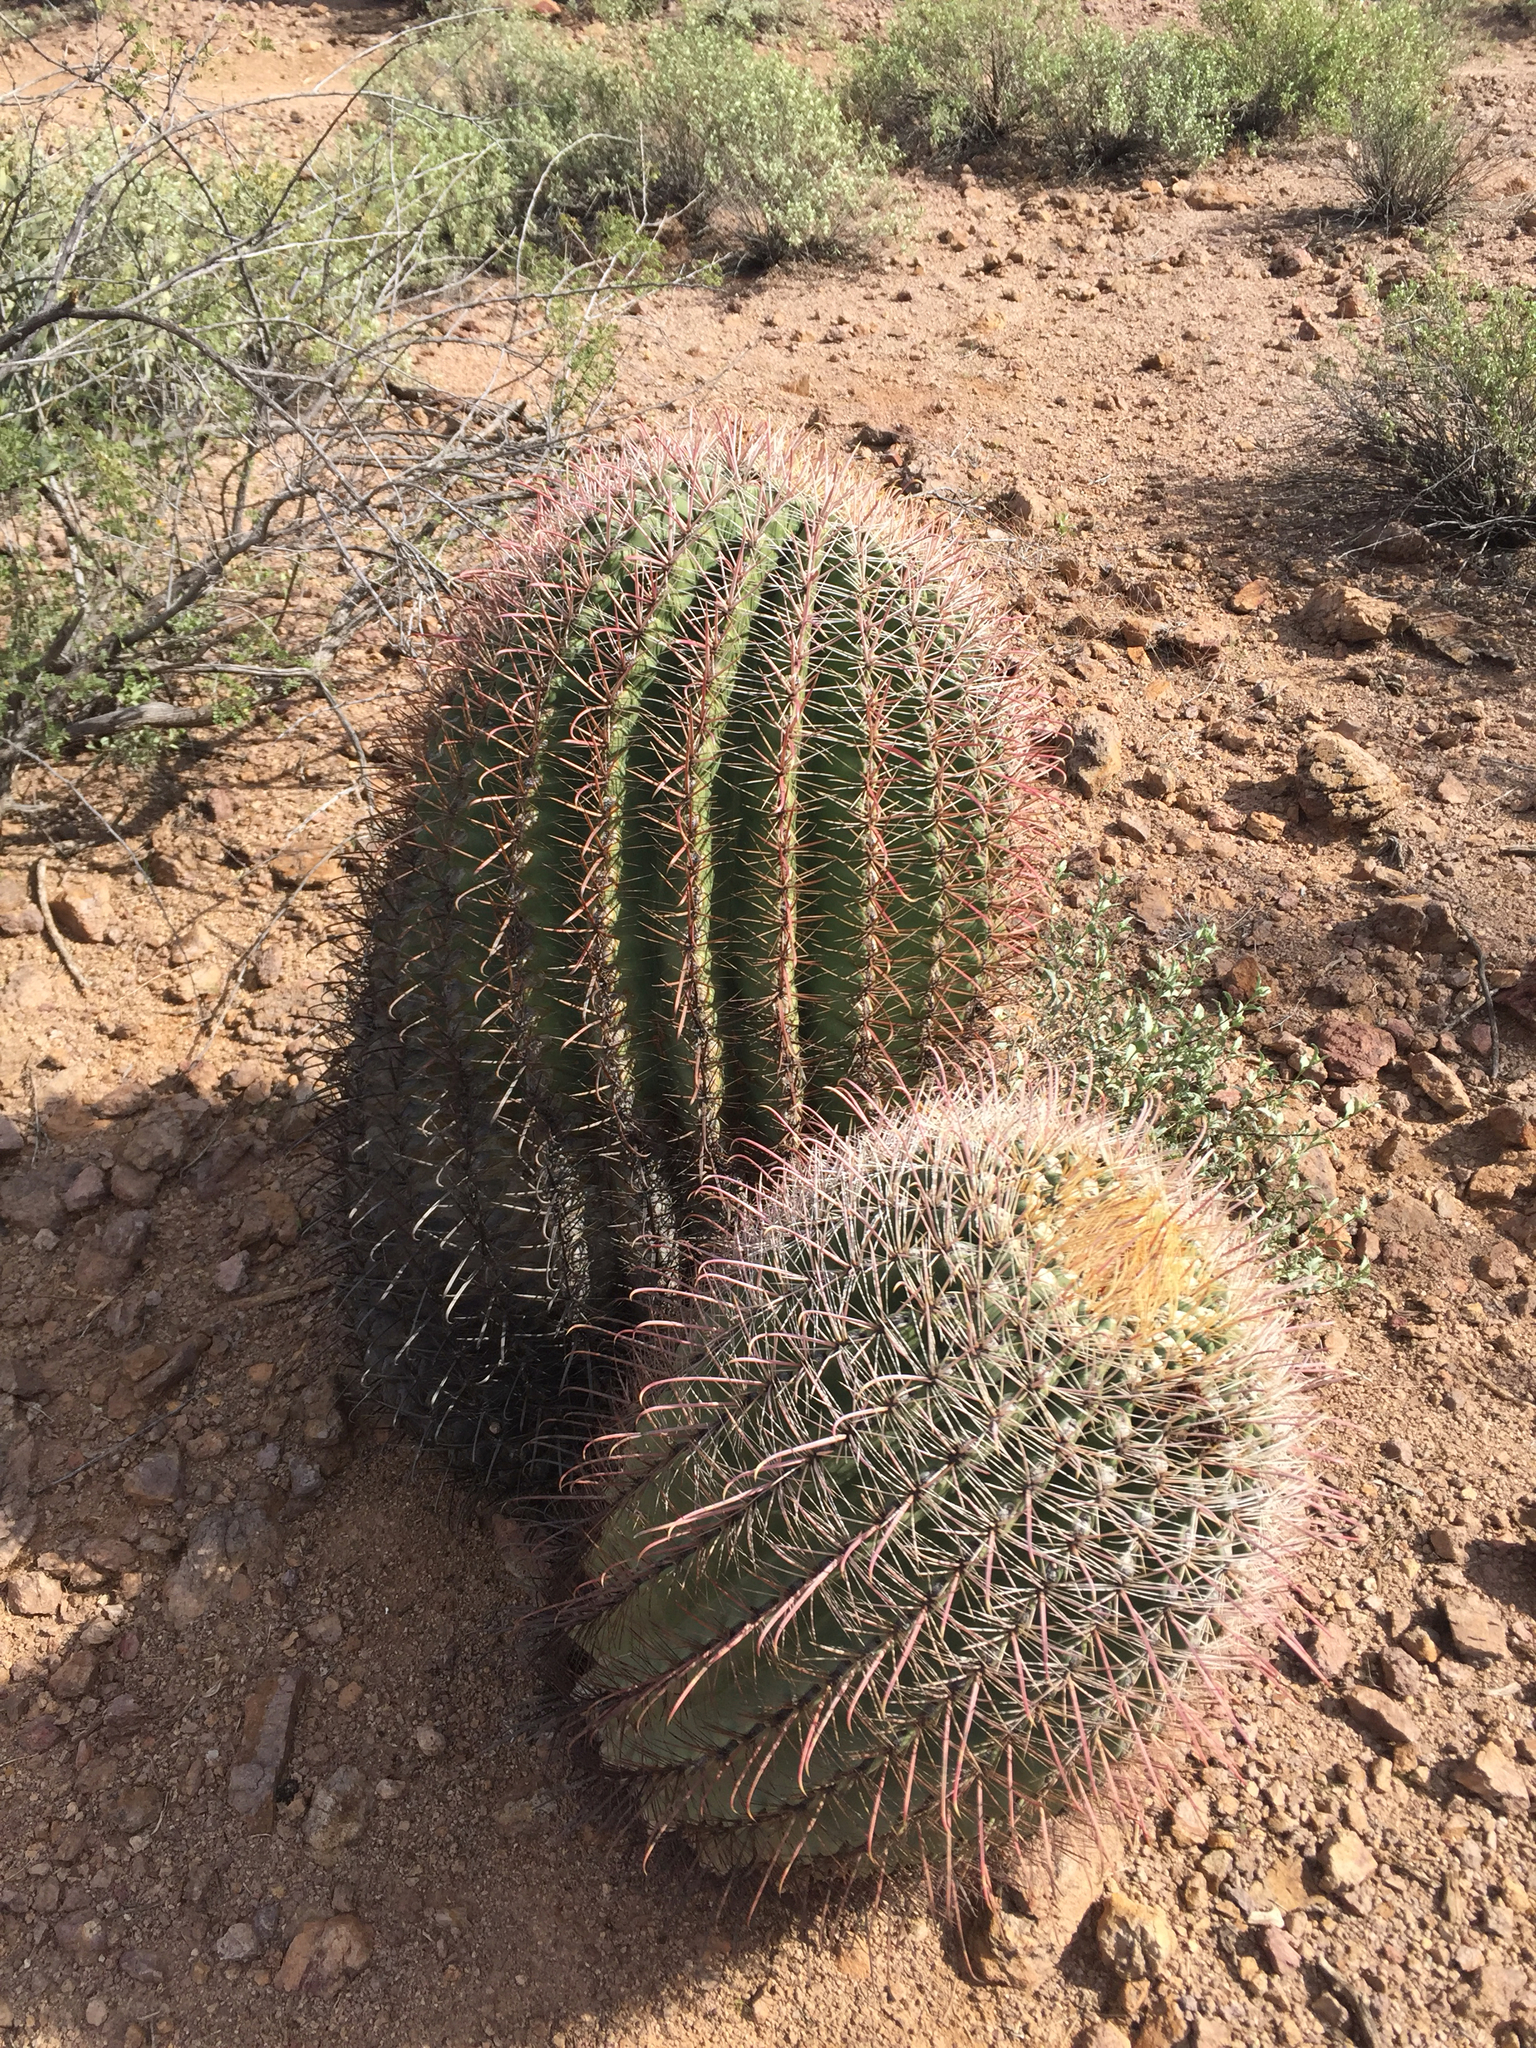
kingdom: Plantae
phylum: Tracheophyta
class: Magnoliopsida
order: Caryophyllales
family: Cactaceae
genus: Ferocactus
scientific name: Ferocactus wislizeni
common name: Candy barrel cactus
